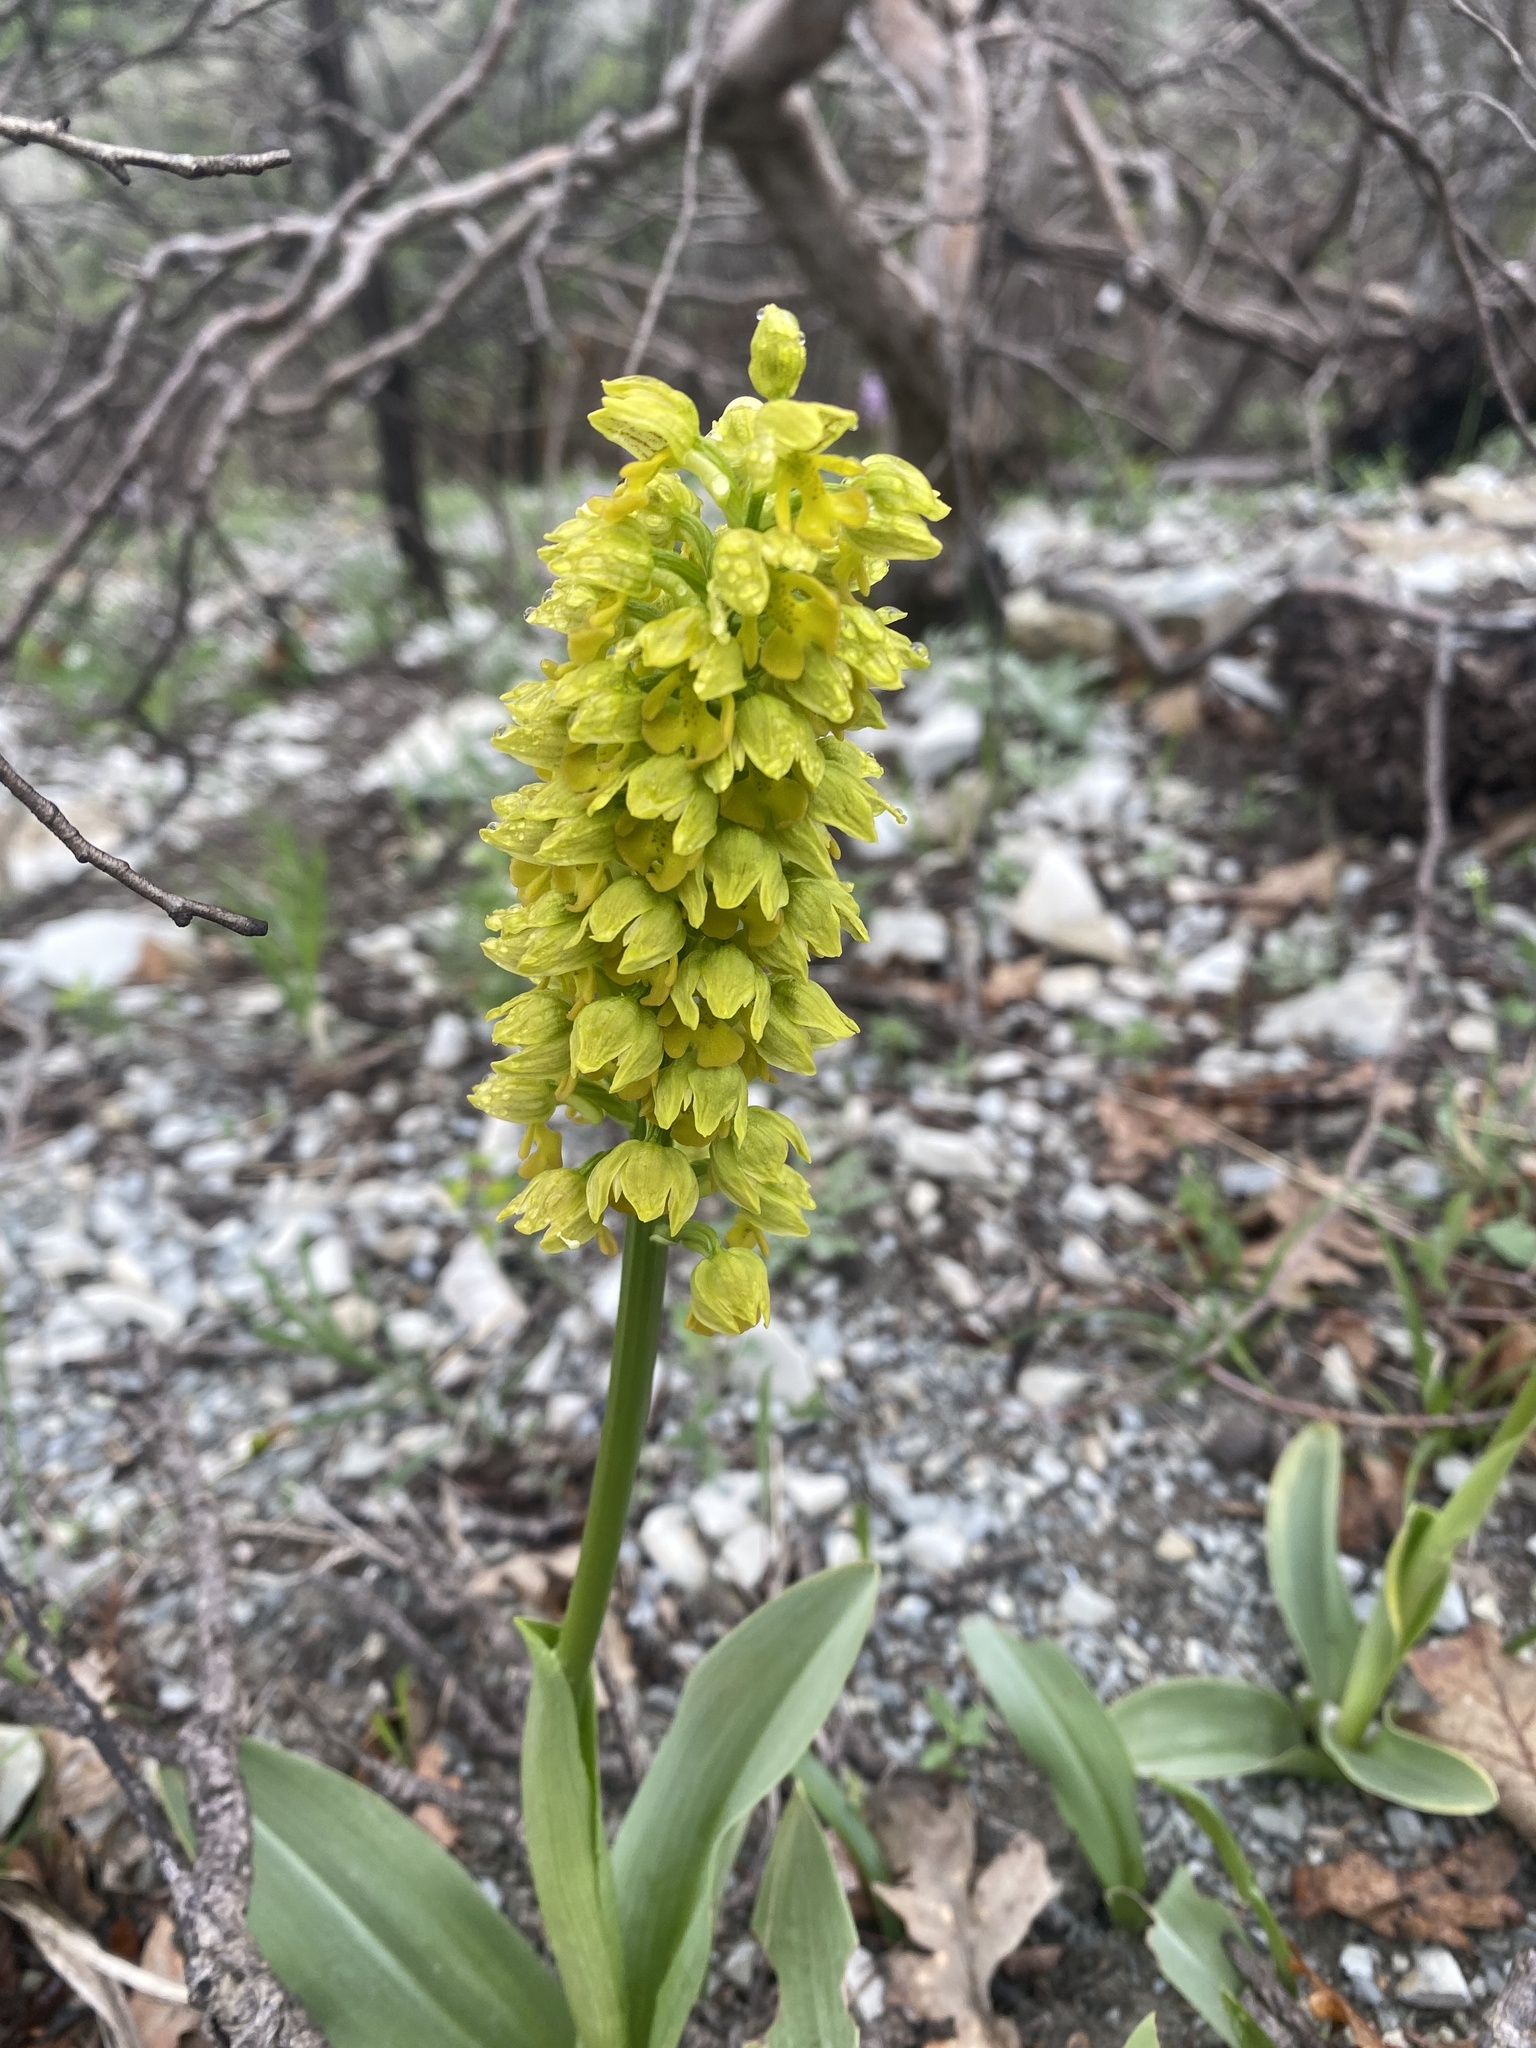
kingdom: Plantae
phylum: Tracheophyta
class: Liliopsida
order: Asparagales
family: Orchidaceae
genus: Orchis
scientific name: Orchis punctulata
